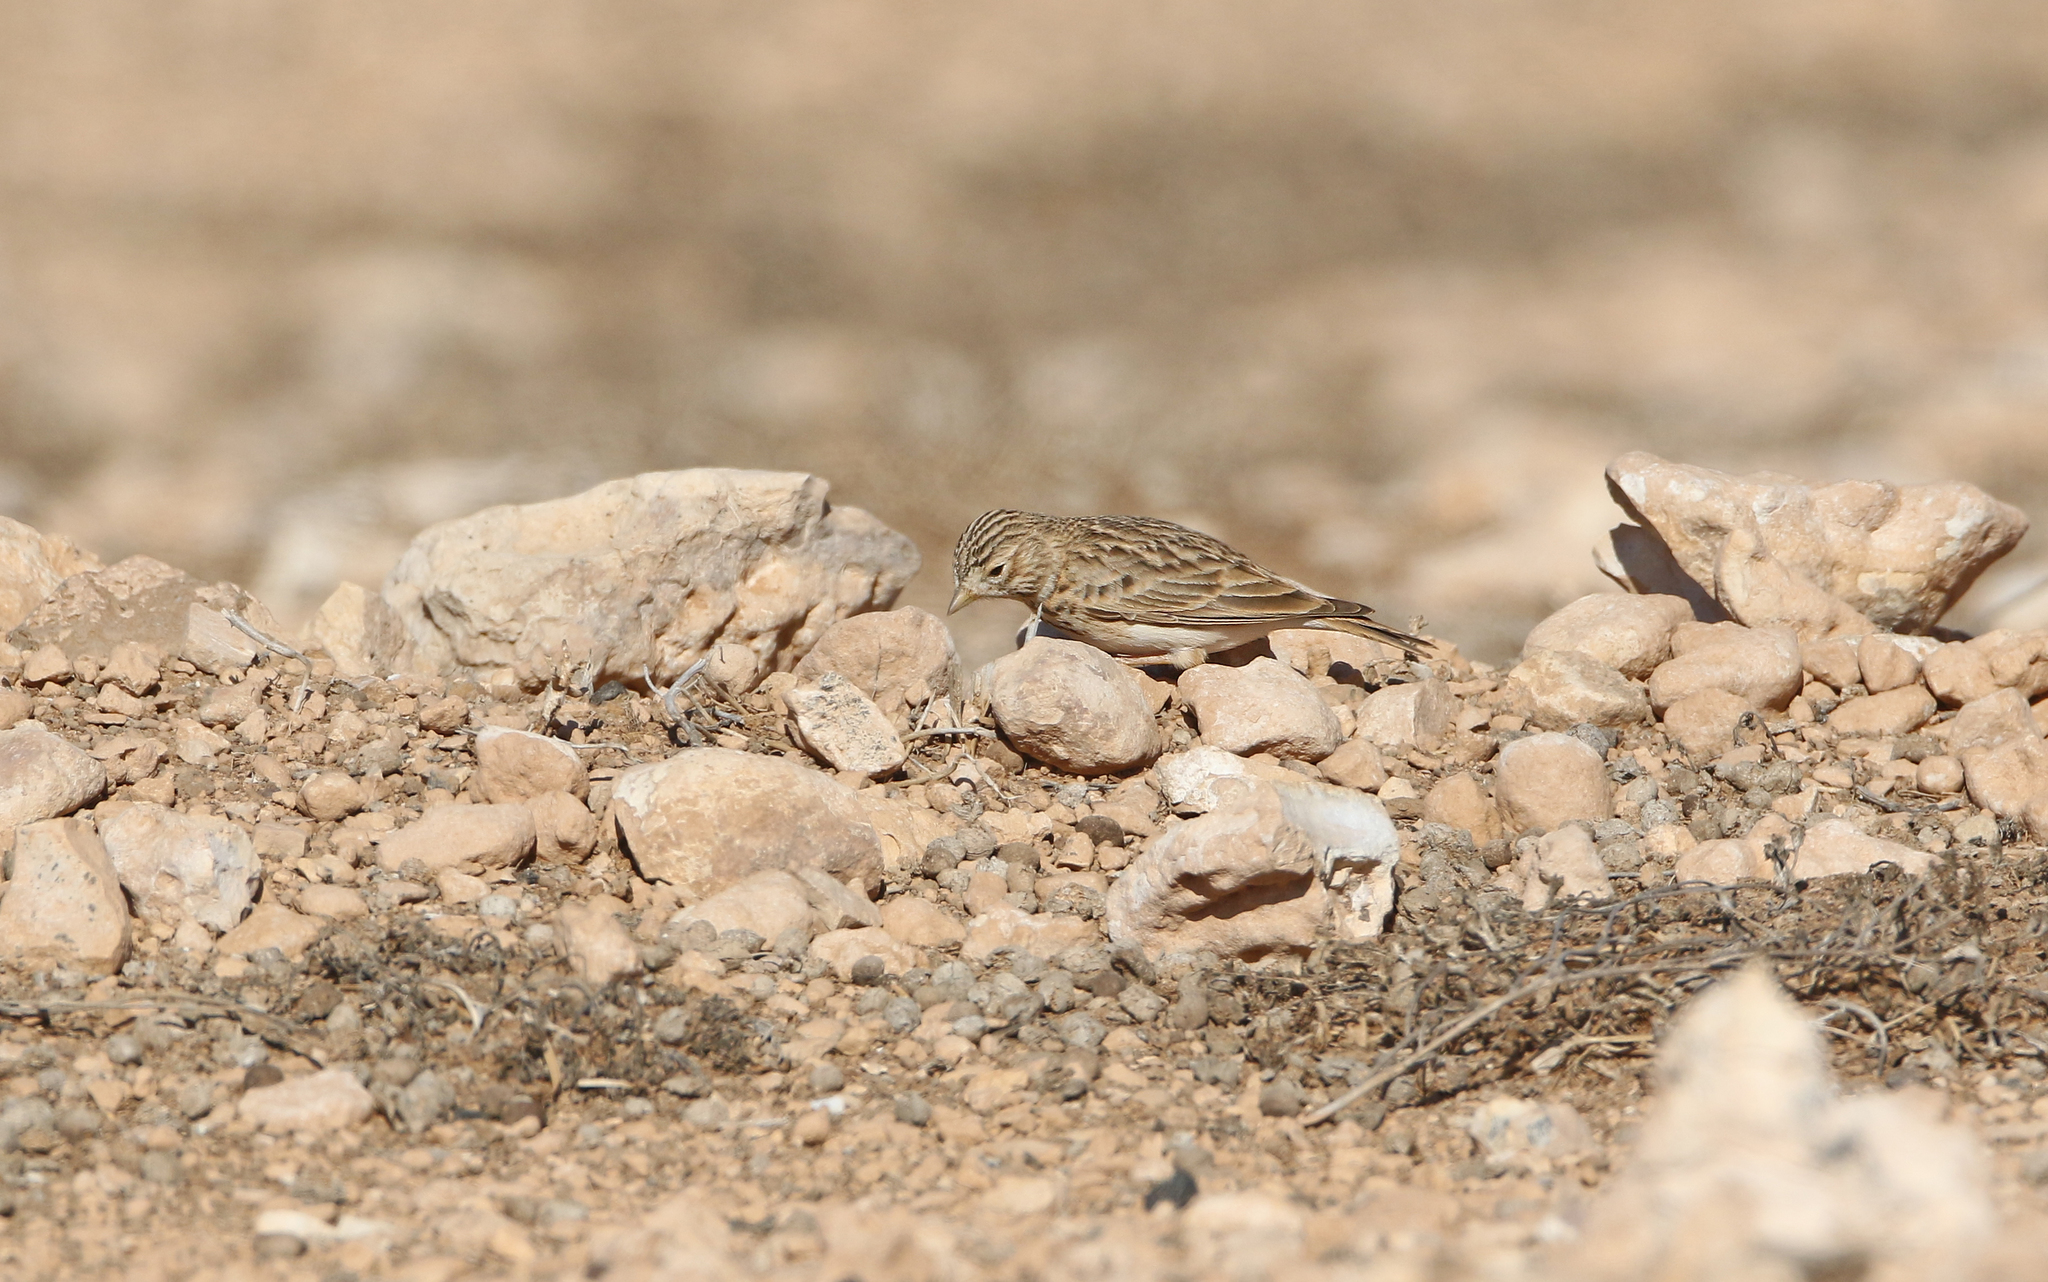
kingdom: Animalia
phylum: Chordata
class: Aves
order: Passeriformes
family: Alaudidae
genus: Calandrella
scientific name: Calandrella rufescens
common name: Lesser short-toed lark
